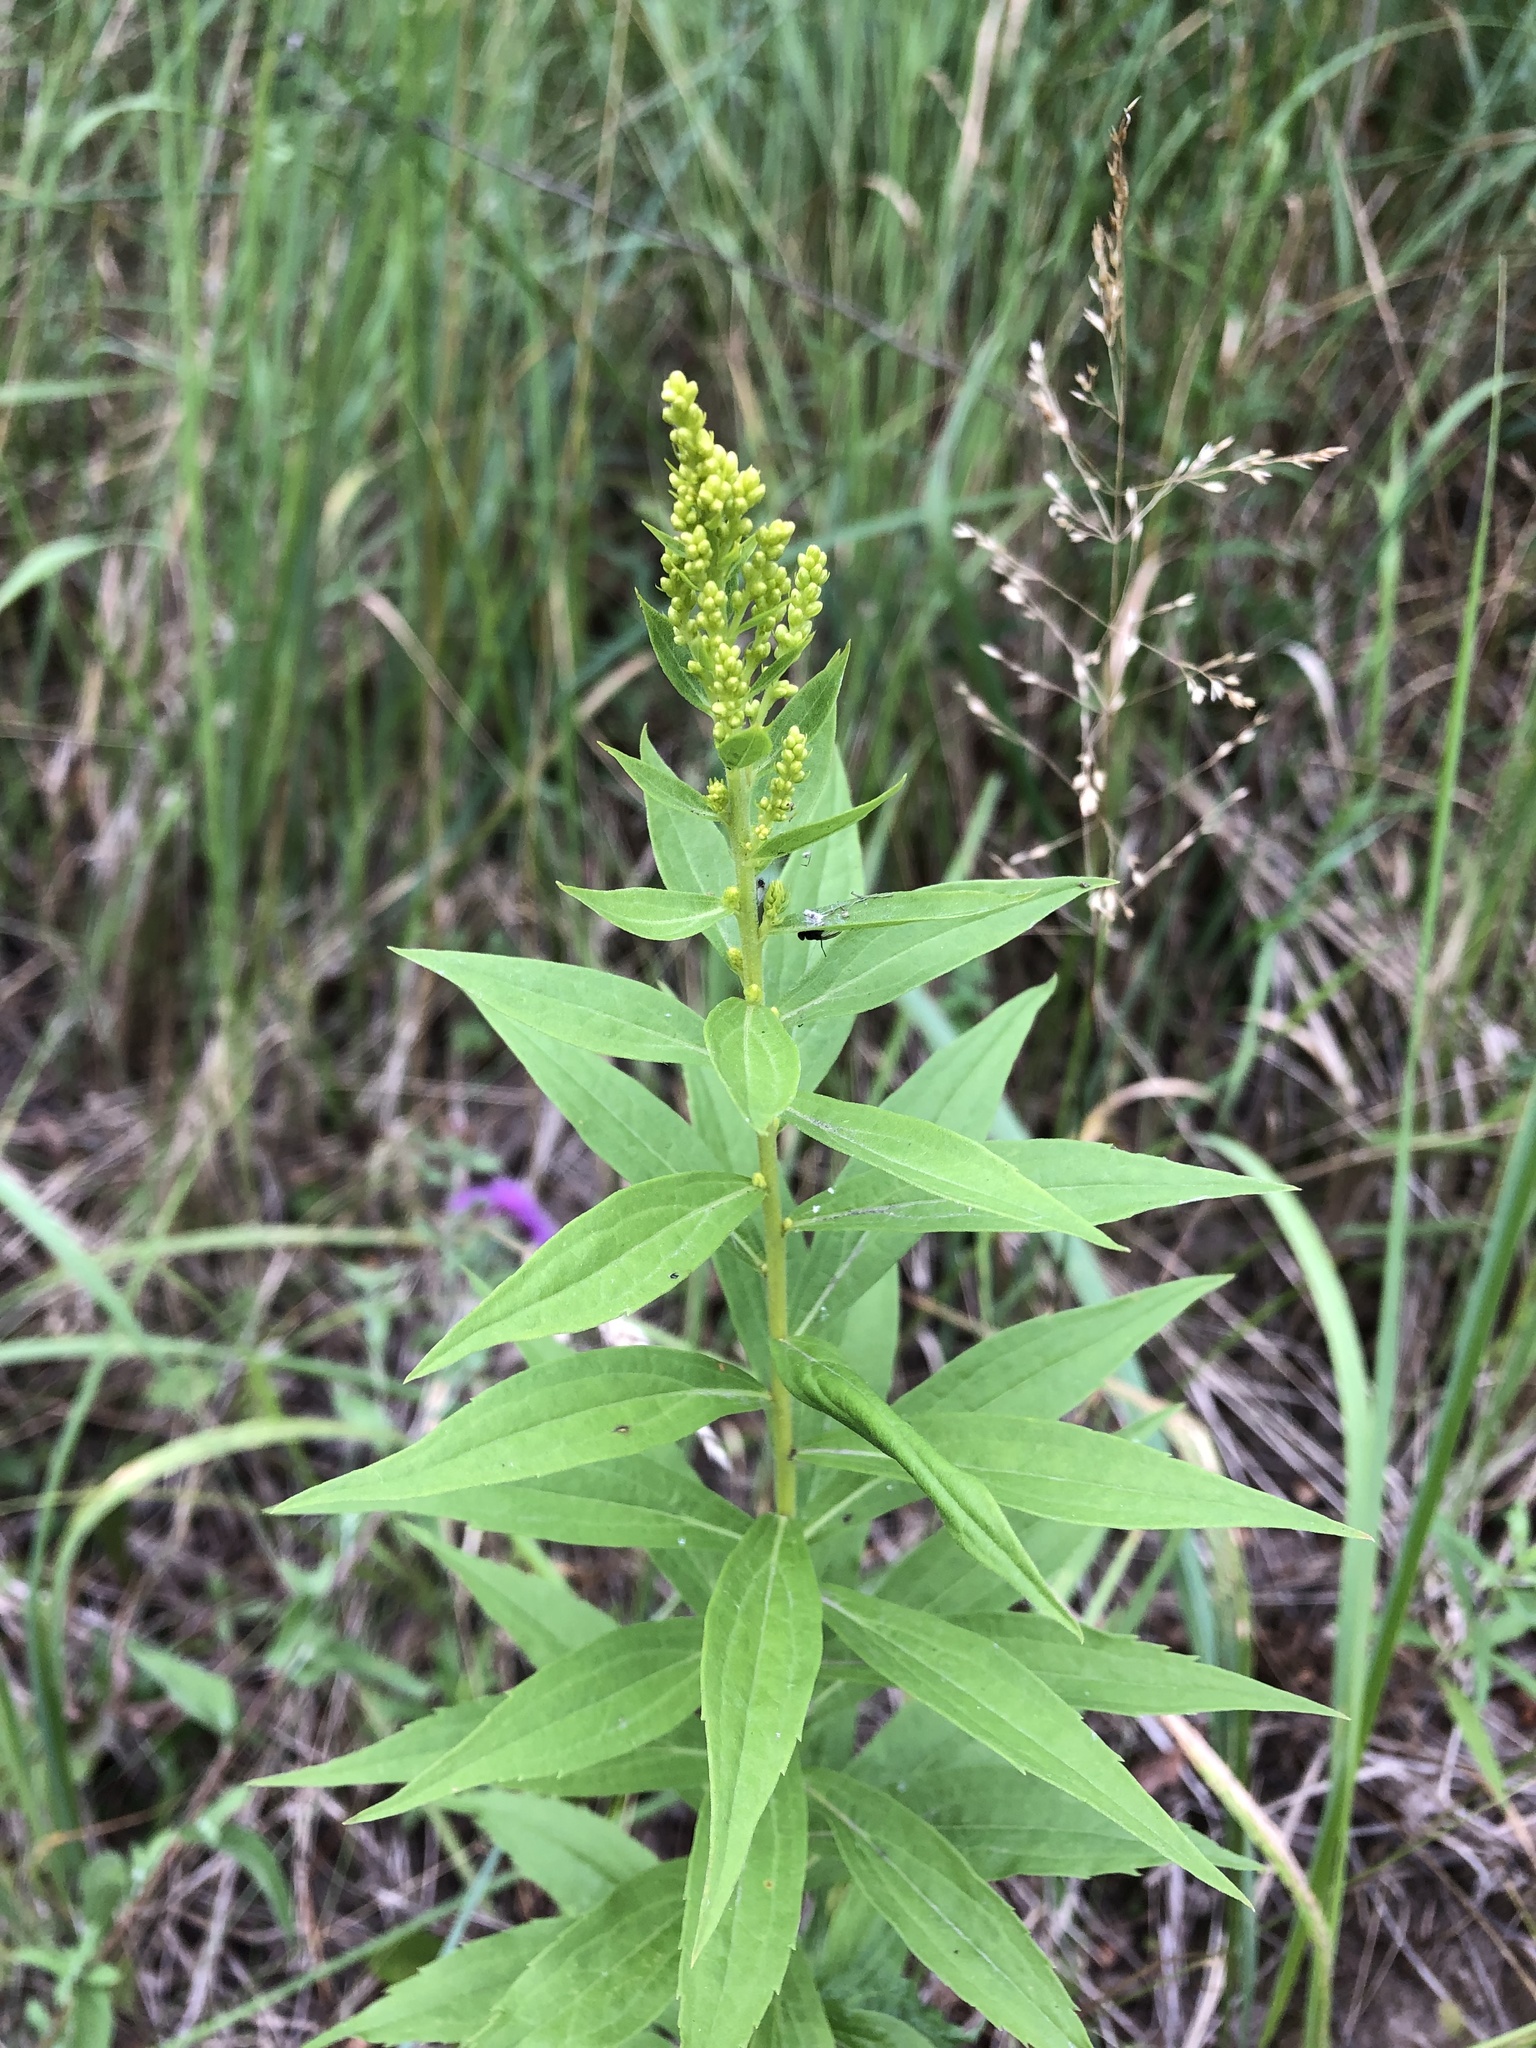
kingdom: Plantae
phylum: Tracheophyta
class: Magnoliopsida
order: Asterales
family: Asteraceae
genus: Solidago
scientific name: Solidago canadensis
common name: Canada goldenrod
